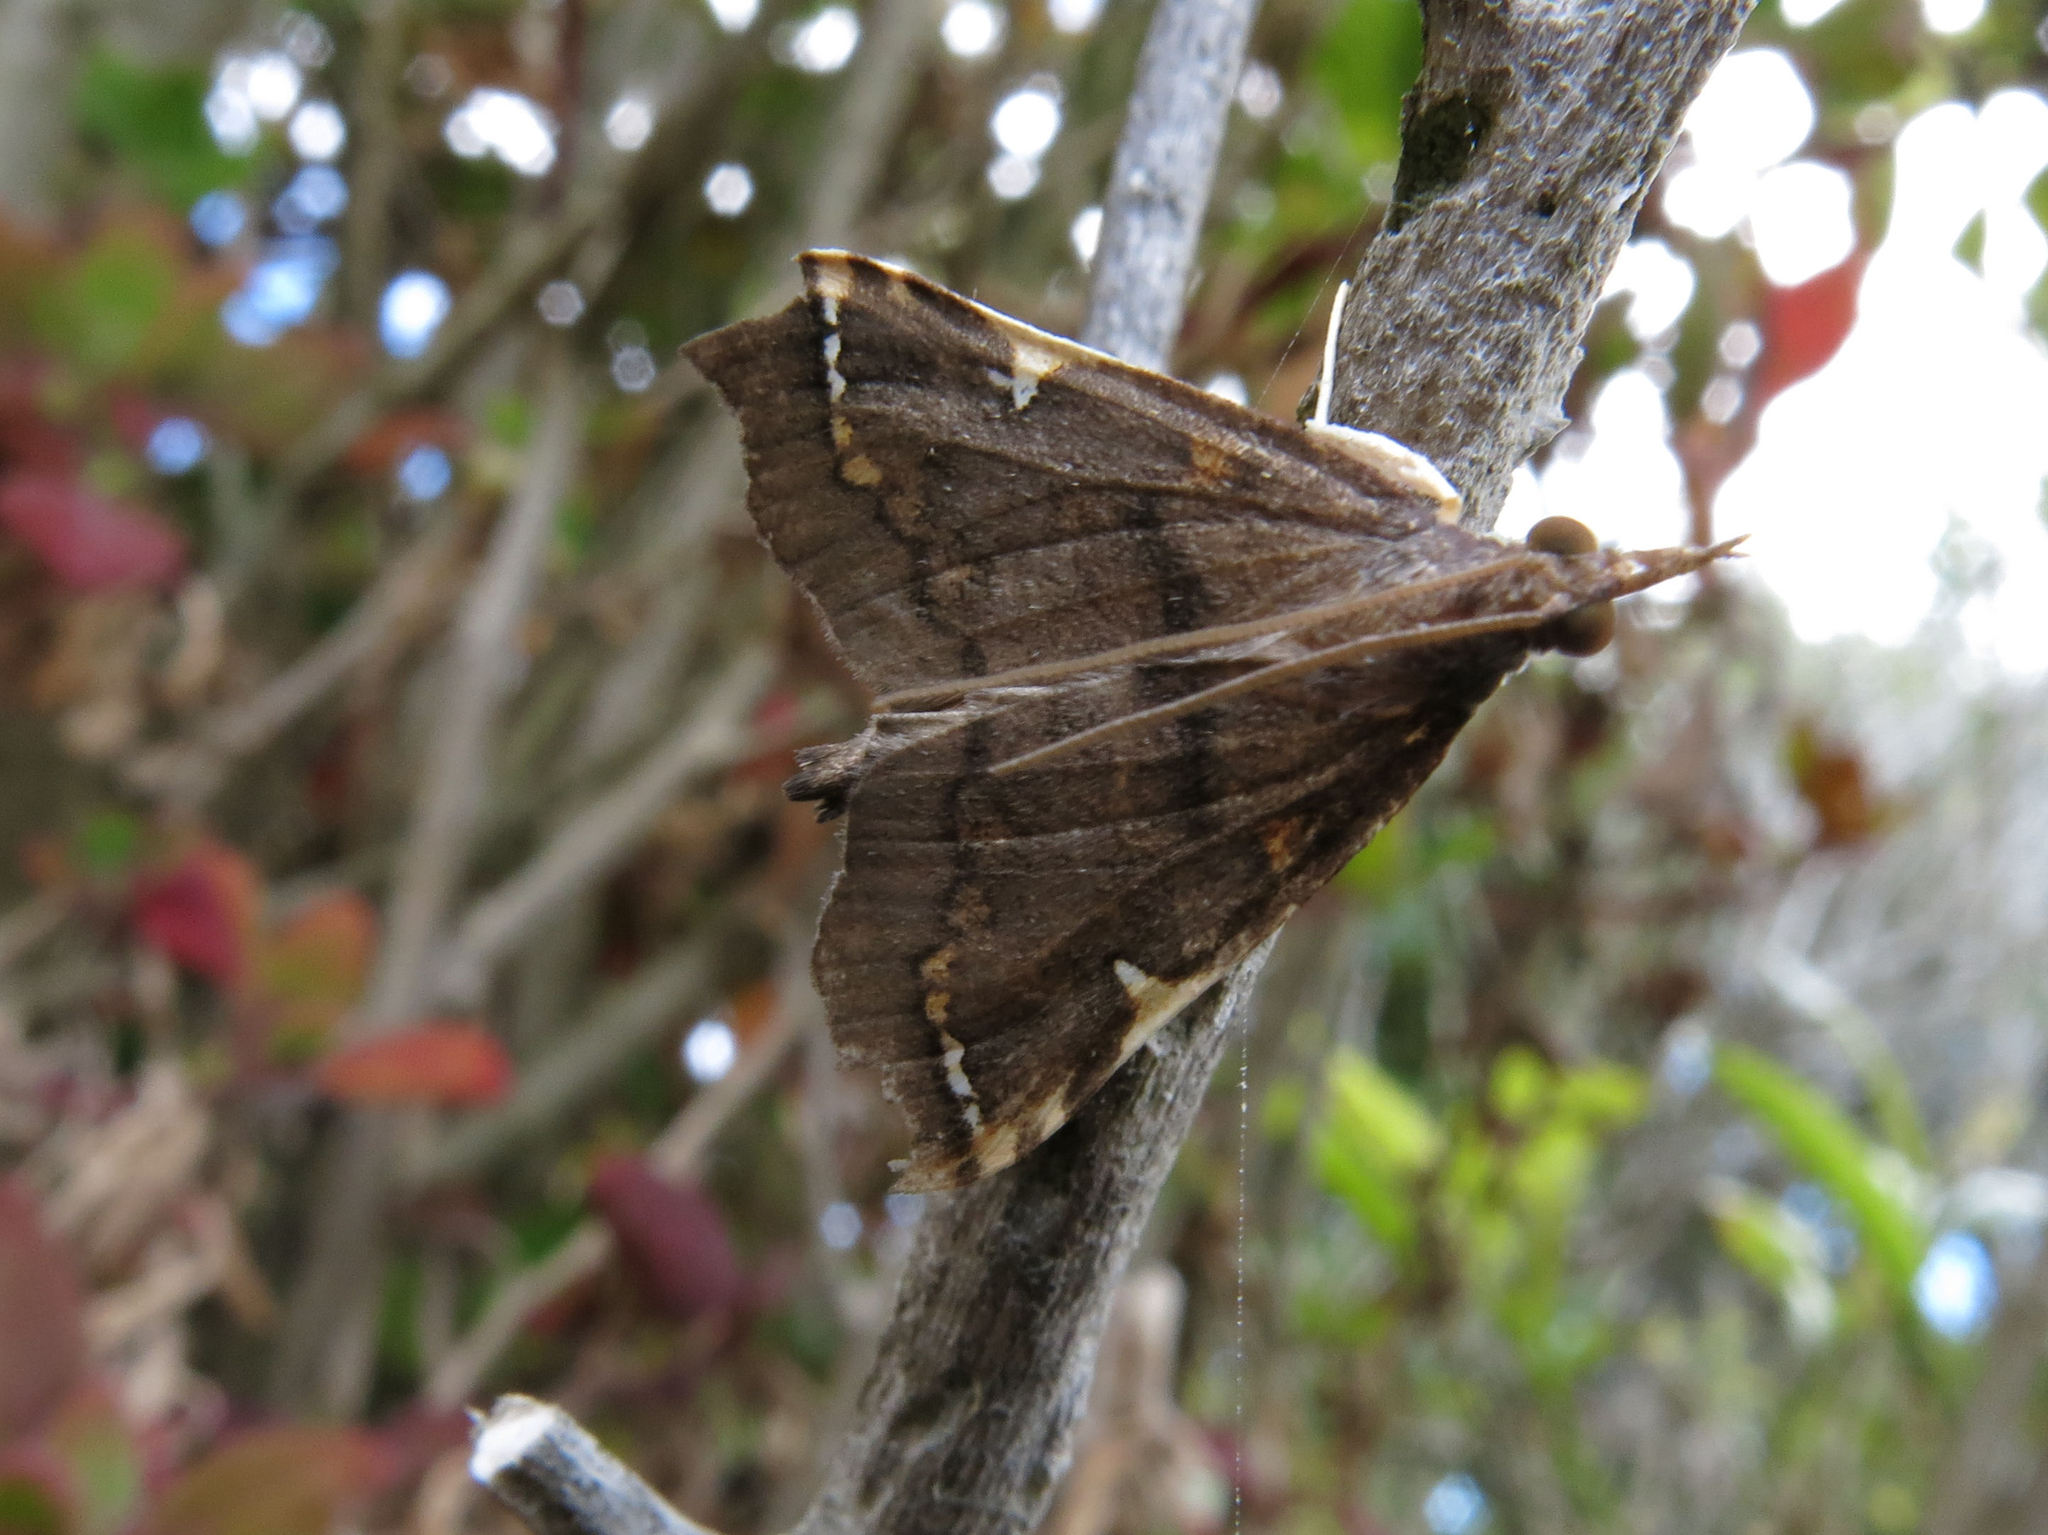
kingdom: Animalia
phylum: Arthropoda
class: Insecta
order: Lepidoptera
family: Crambidae
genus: Deana
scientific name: Deana hybreasalis
